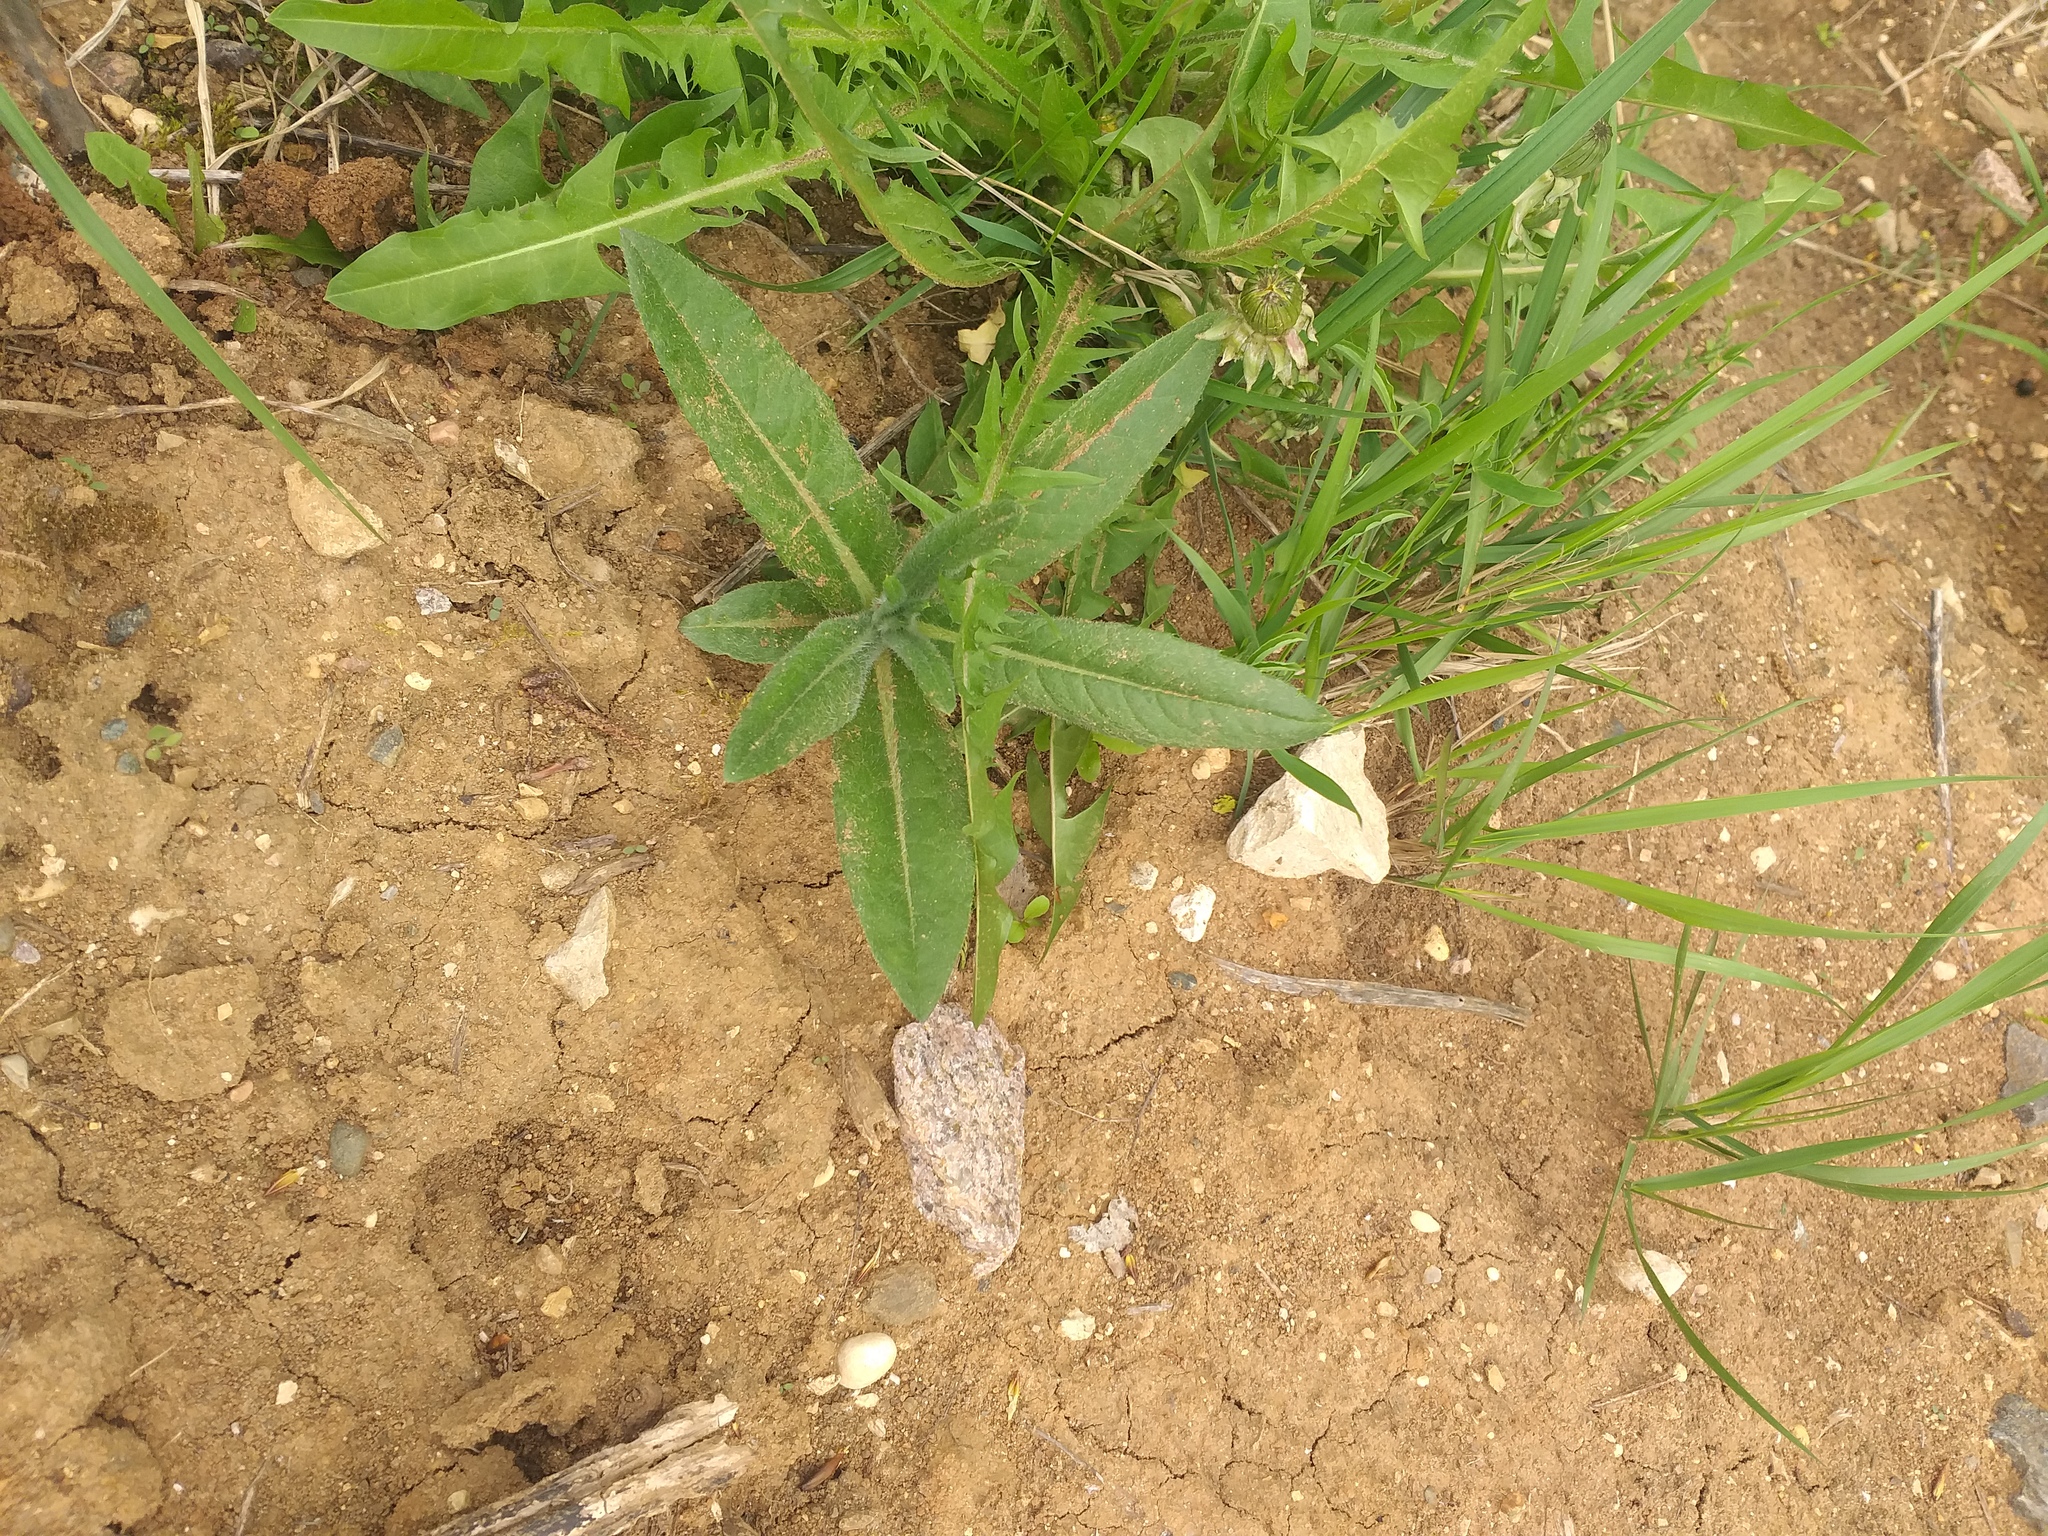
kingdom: Plantae
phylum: Tracheophyta
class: Magnoliopsida
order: Asterales
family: Asteraceae
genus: Cirsium
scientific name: Cirsium arvense
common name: Creeping thistle
